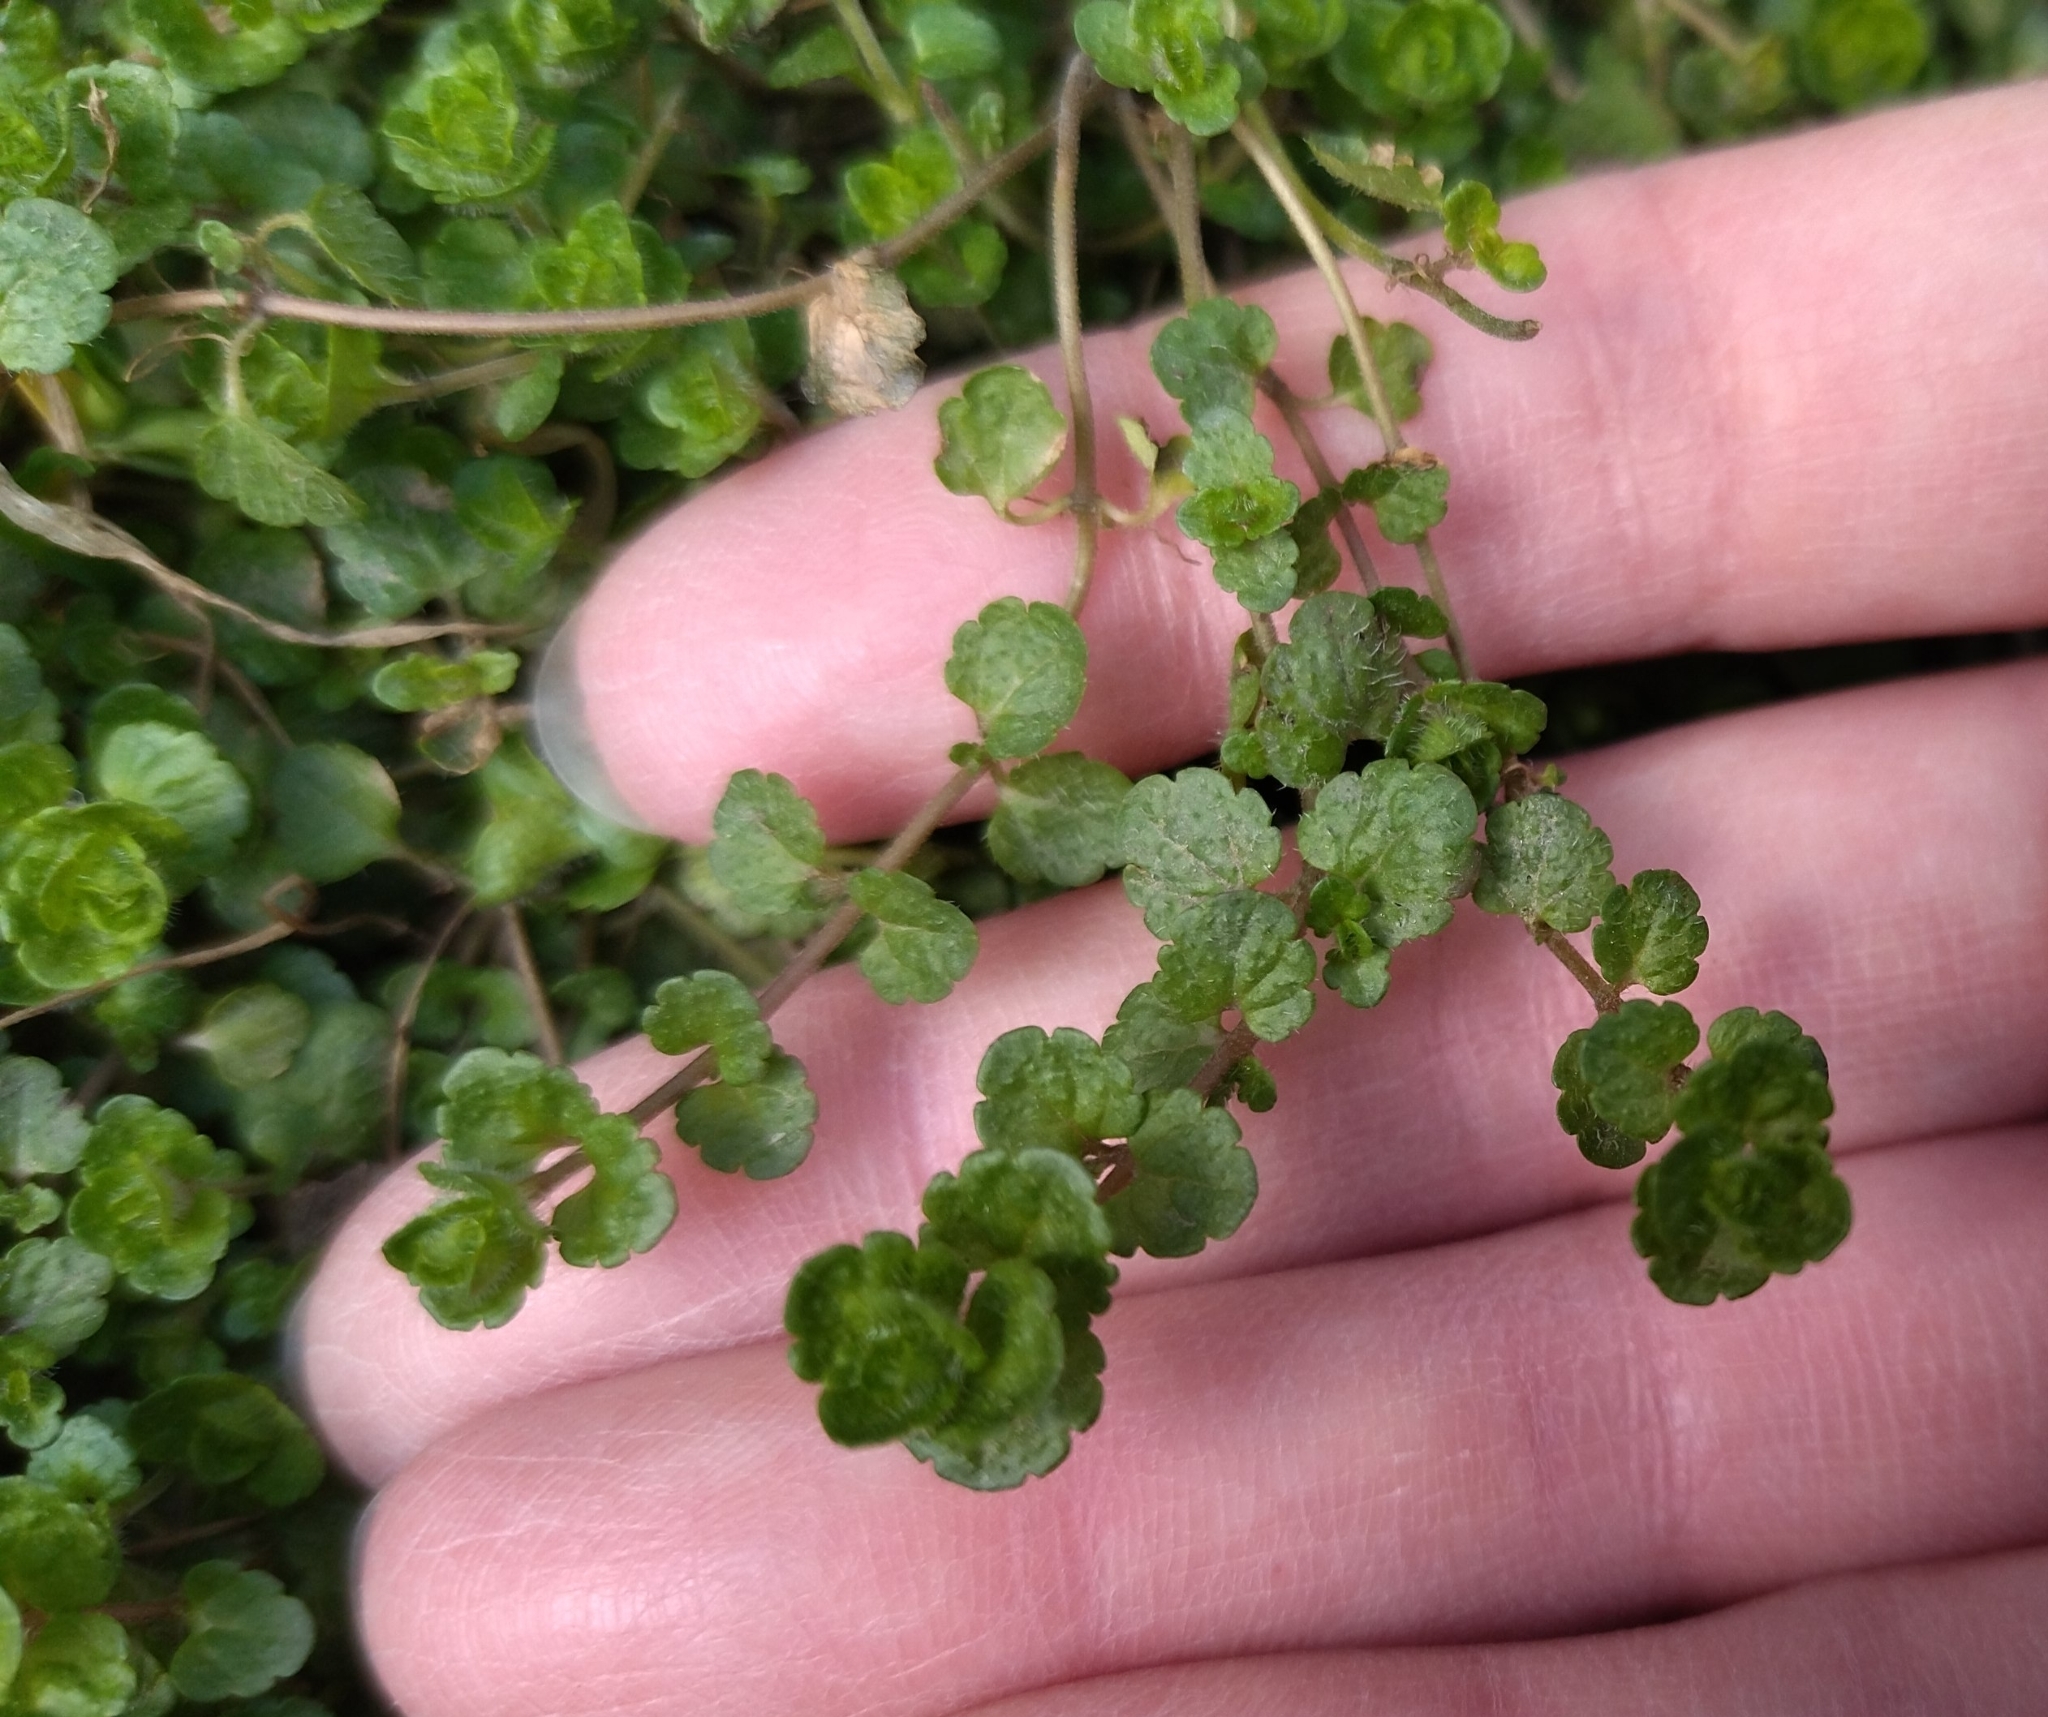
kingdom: Plantae
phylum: Tracheophyta
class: Magnoliopsida
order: Lamiales
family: Plantaginaceae
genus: Veronica
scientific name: Veronica filiformis
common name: Slender speedwell
